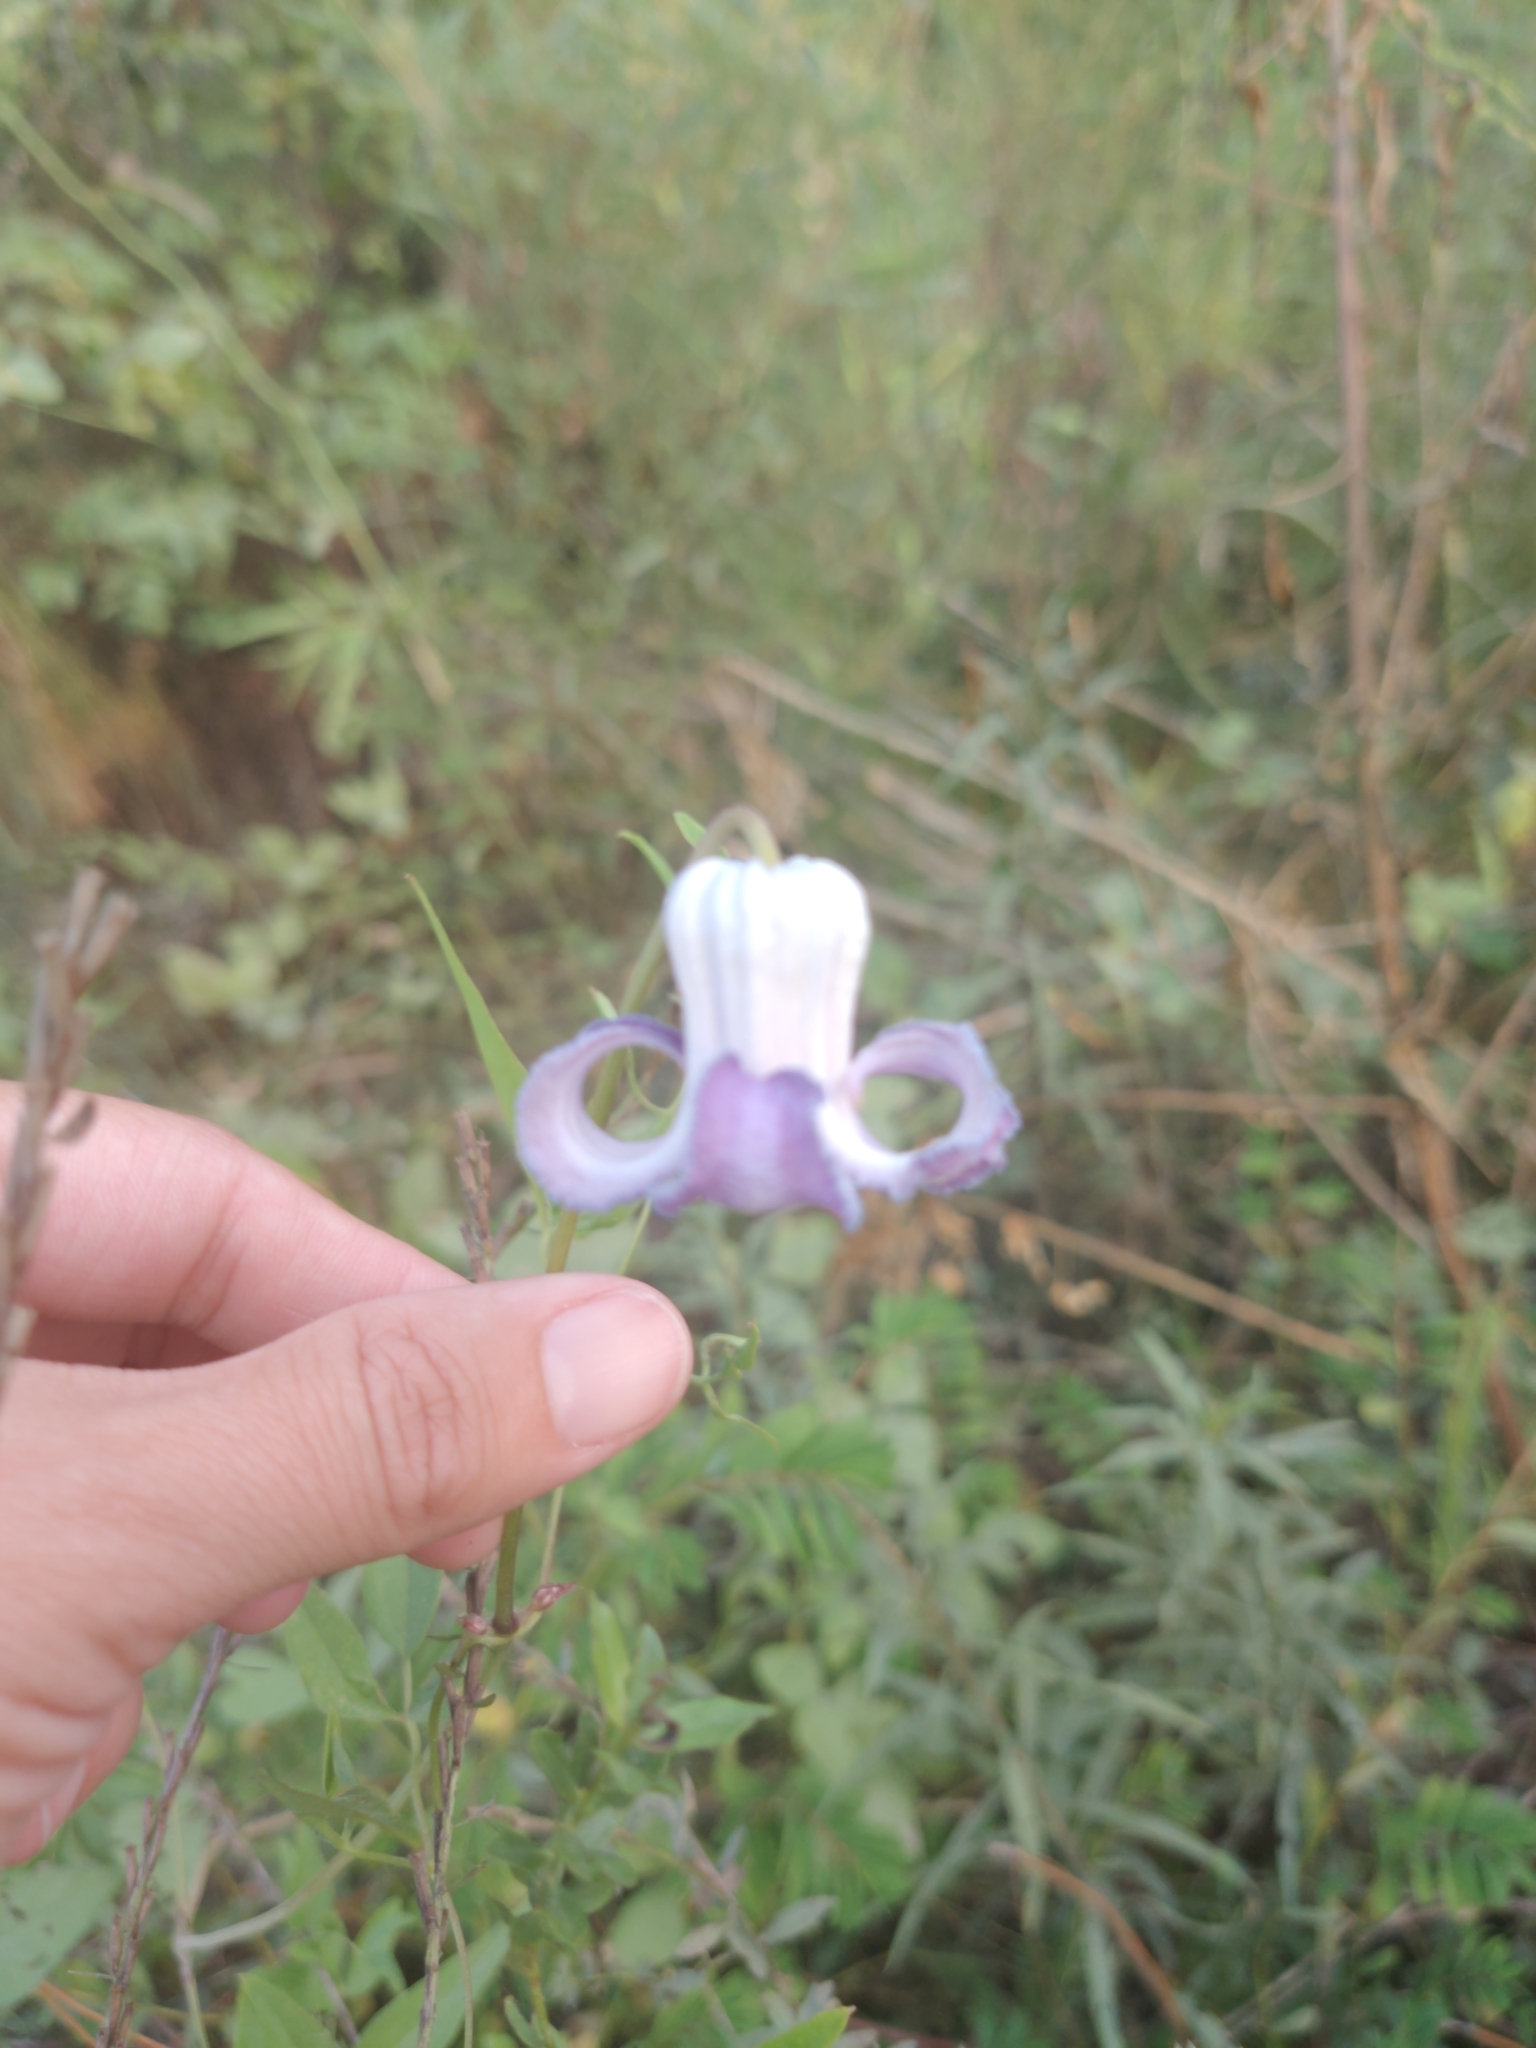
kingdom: Plantae
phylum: Tracheophyta
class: Magnoliopsida
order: Ranunculales
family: Ranunculaceae
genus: Clematis
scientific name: Clematis crispa
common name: Curly clematis
